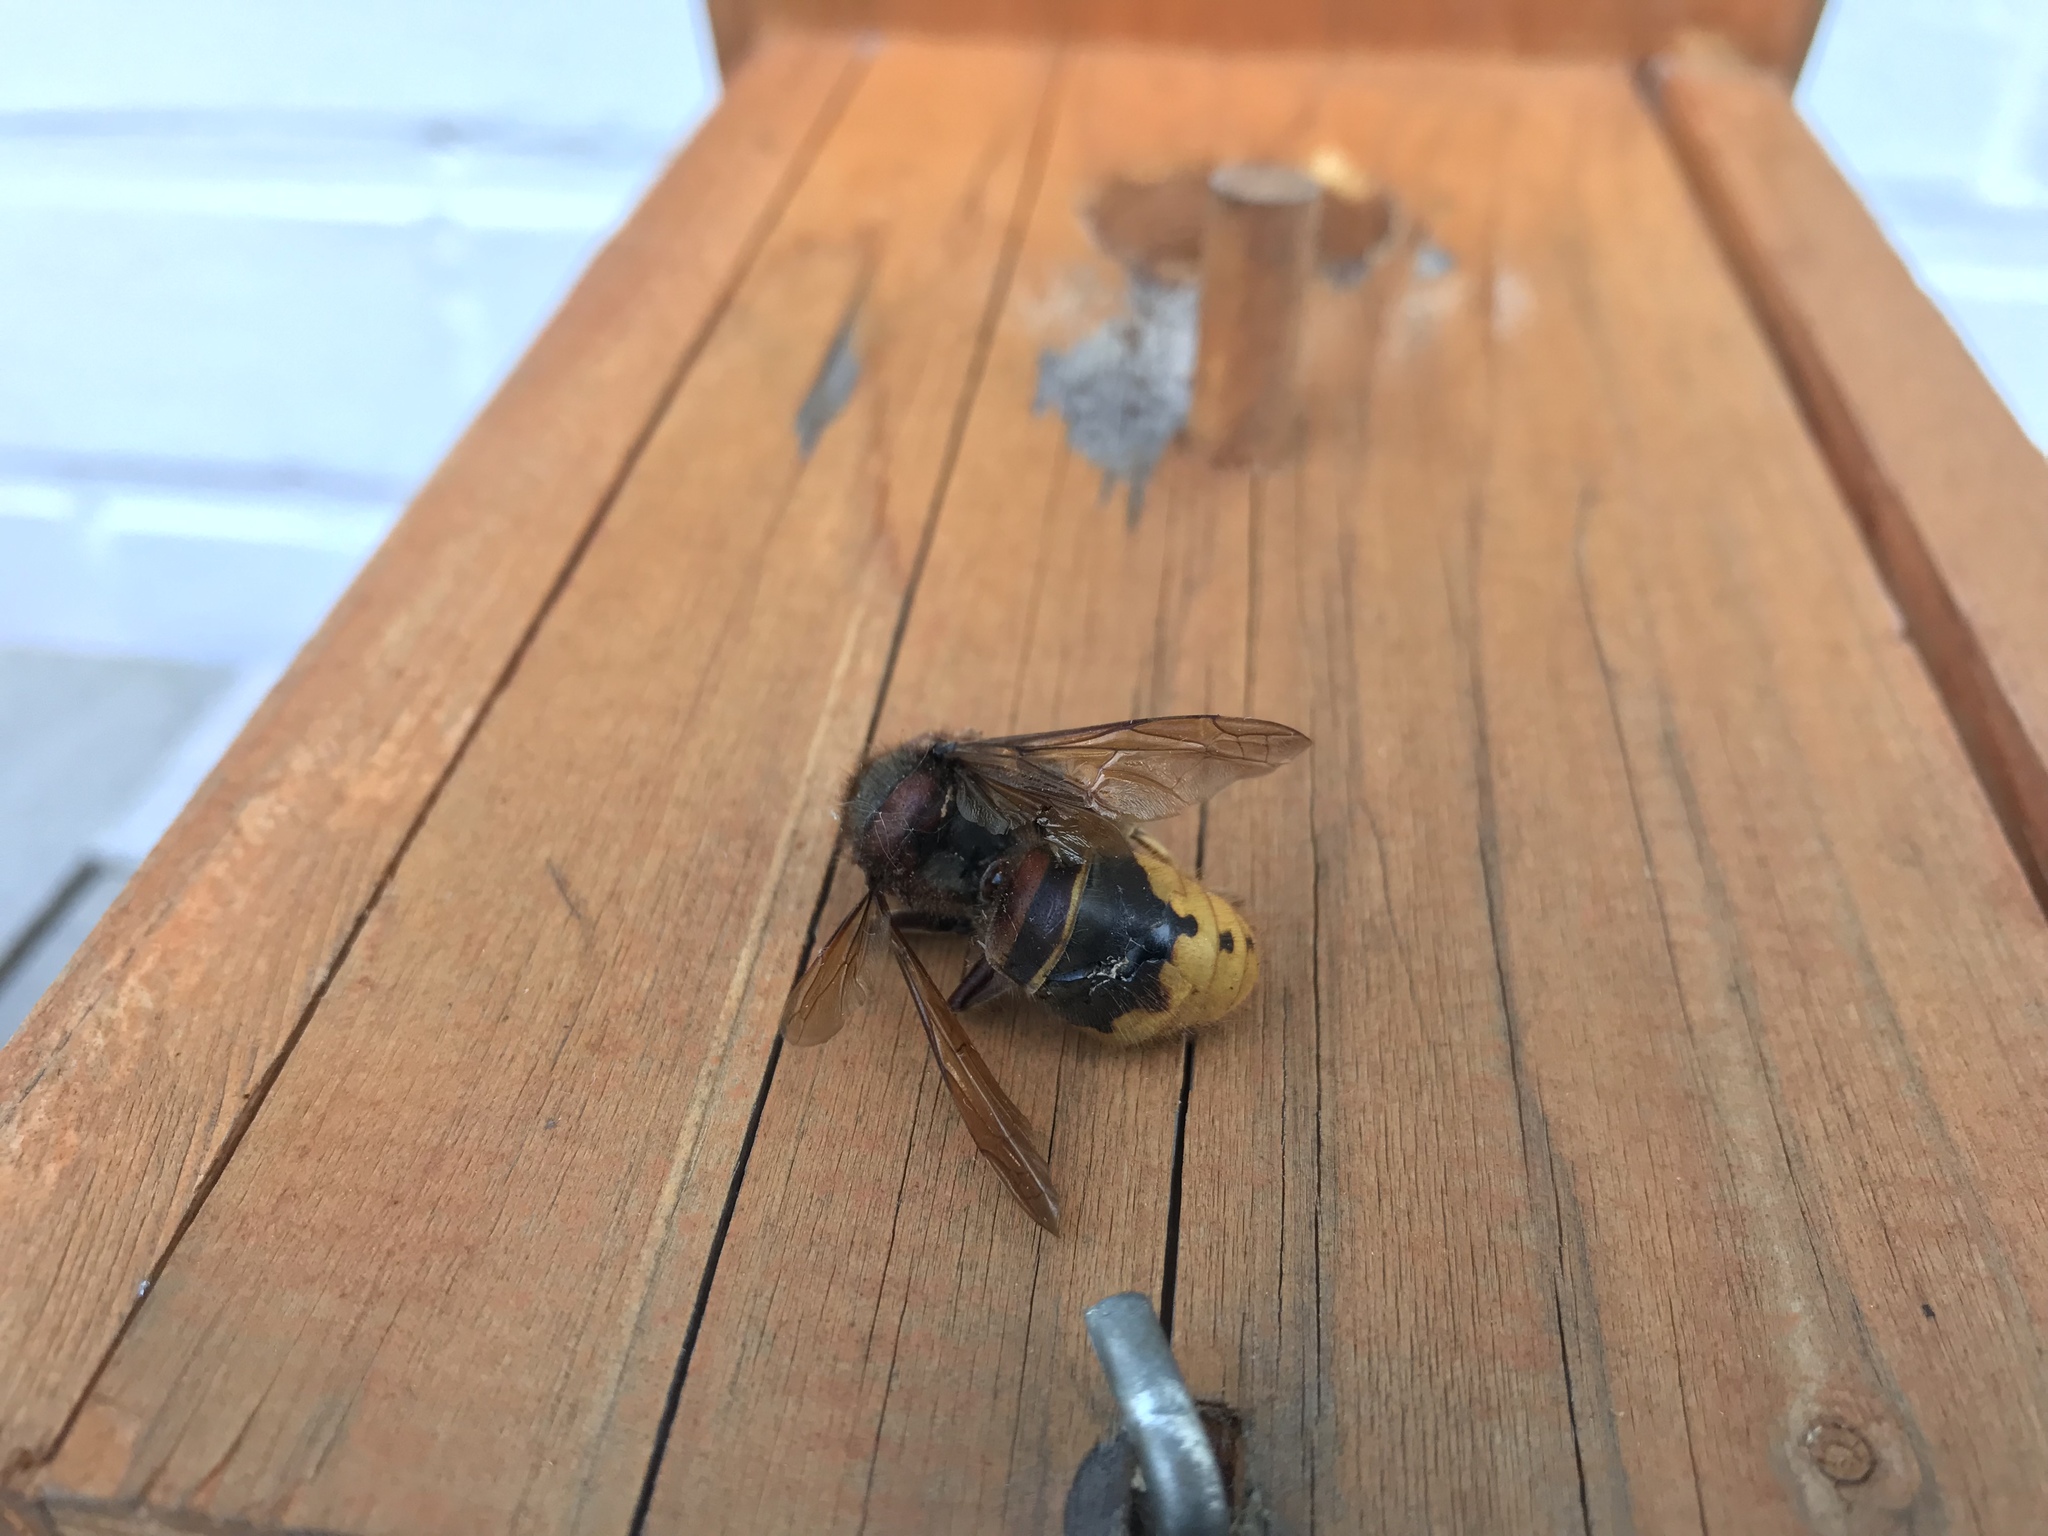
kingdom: Animalia
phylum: Arthropoda
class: Insecta
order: Hymenoptera
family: Vespidae
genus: Vespa
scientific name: Vespa crabro
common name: Hornet
